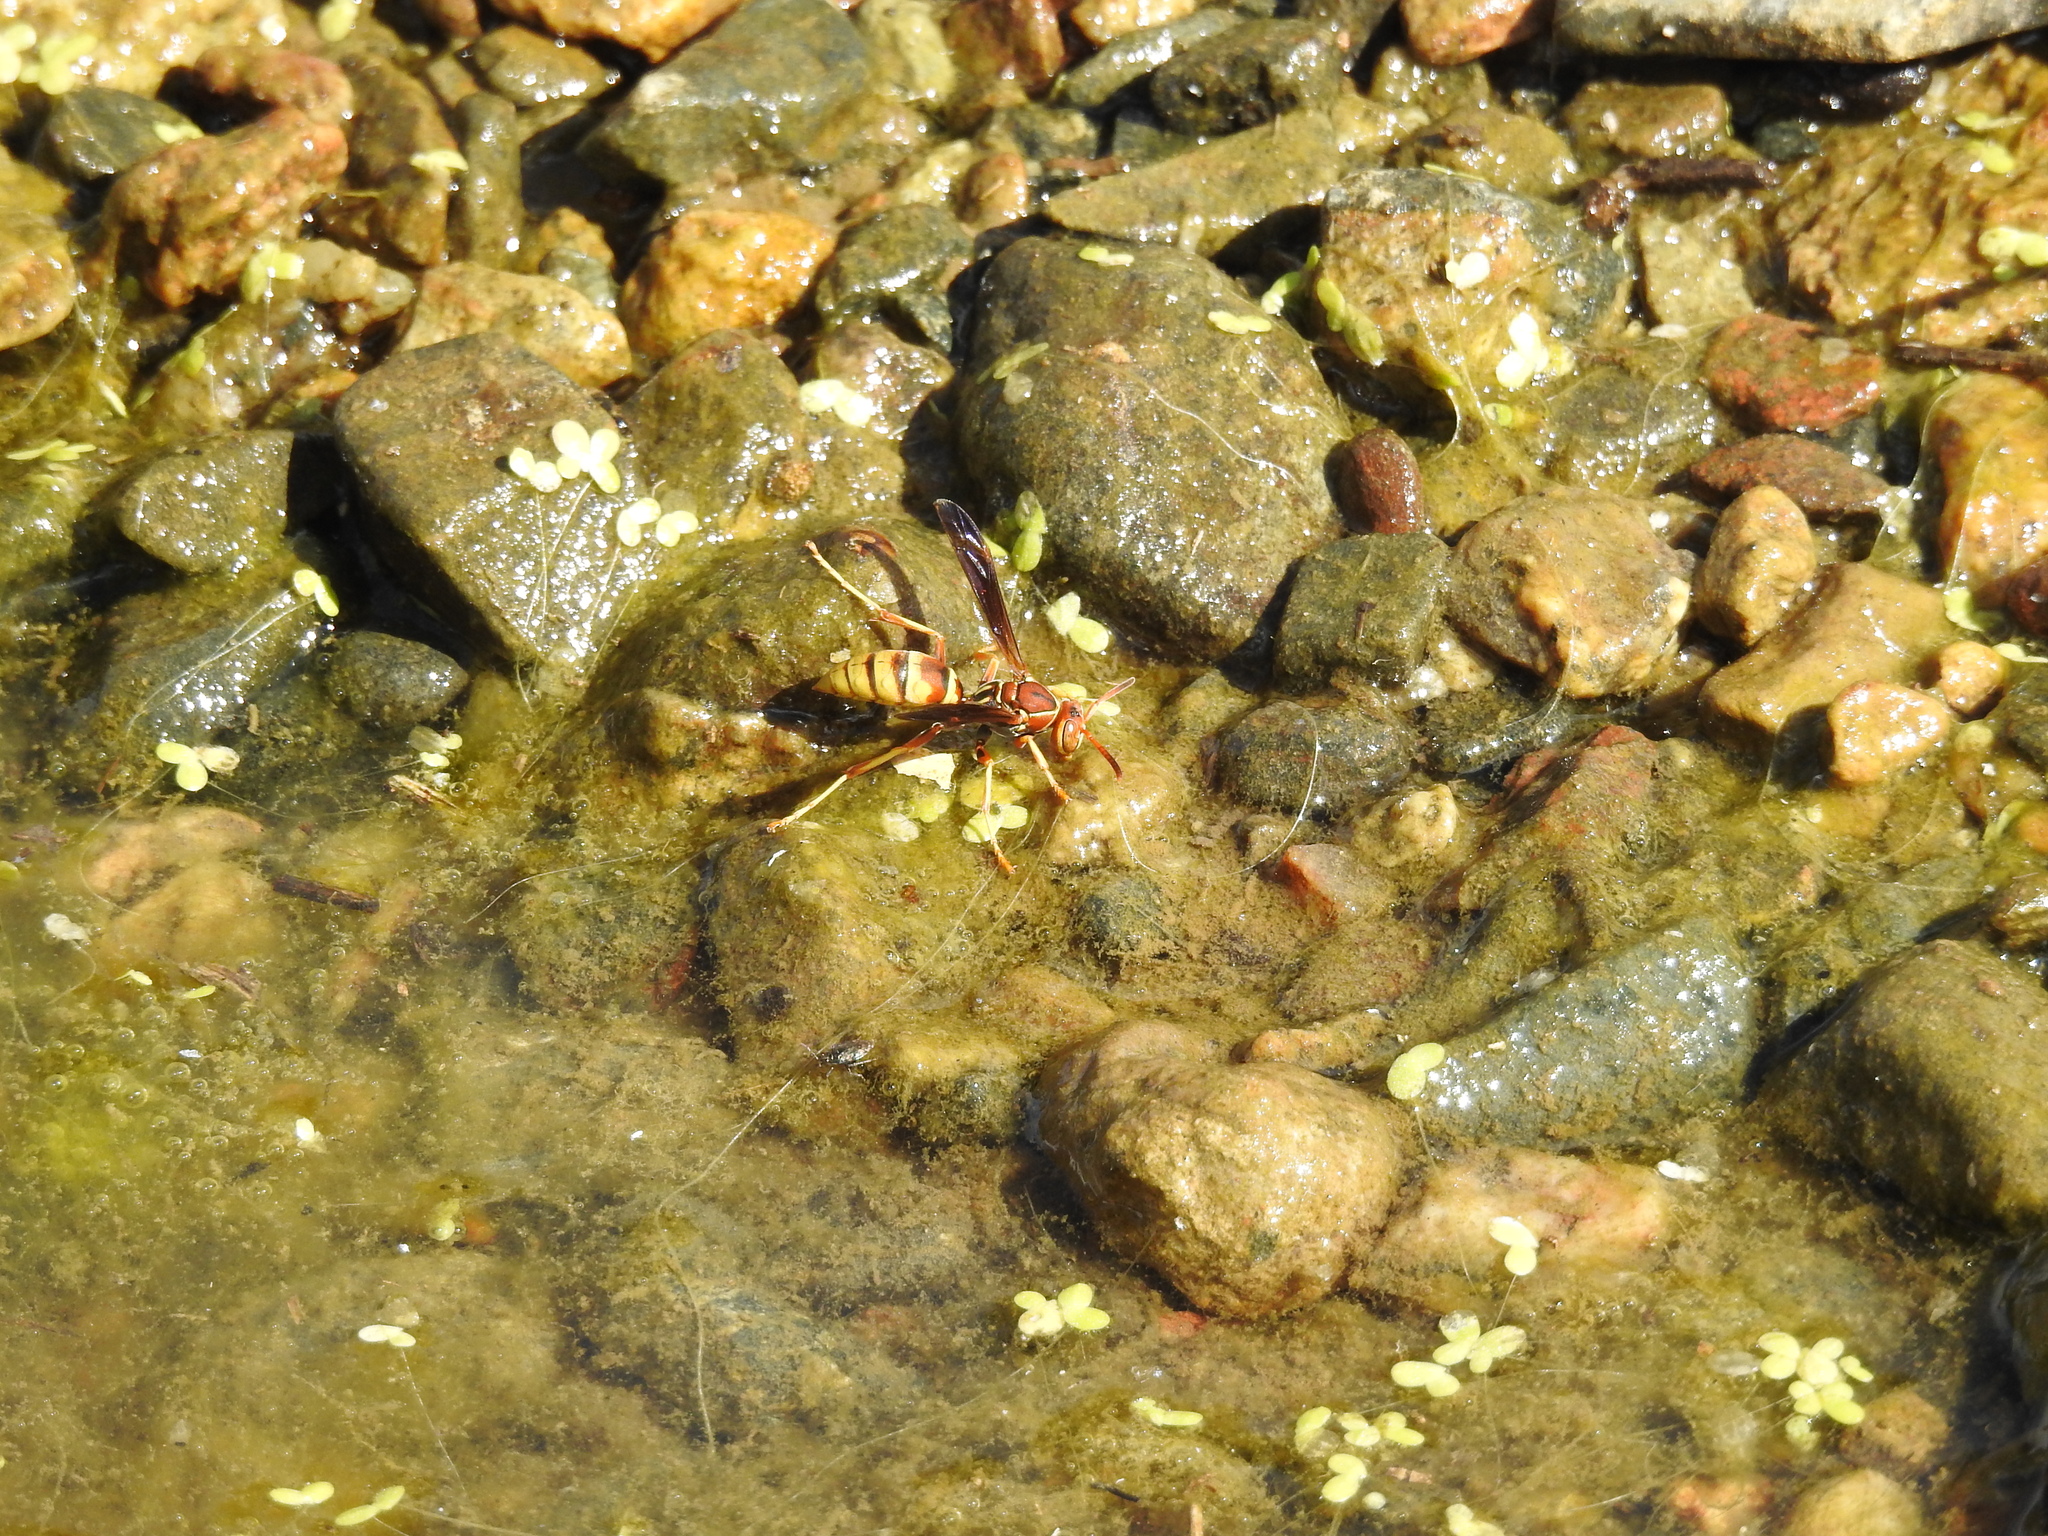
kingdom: Animalia
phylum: Arthropoda
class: Insecta
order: Hymenoptera
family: Eumenidae
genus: Polistes
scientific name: Polistes dorsalis
